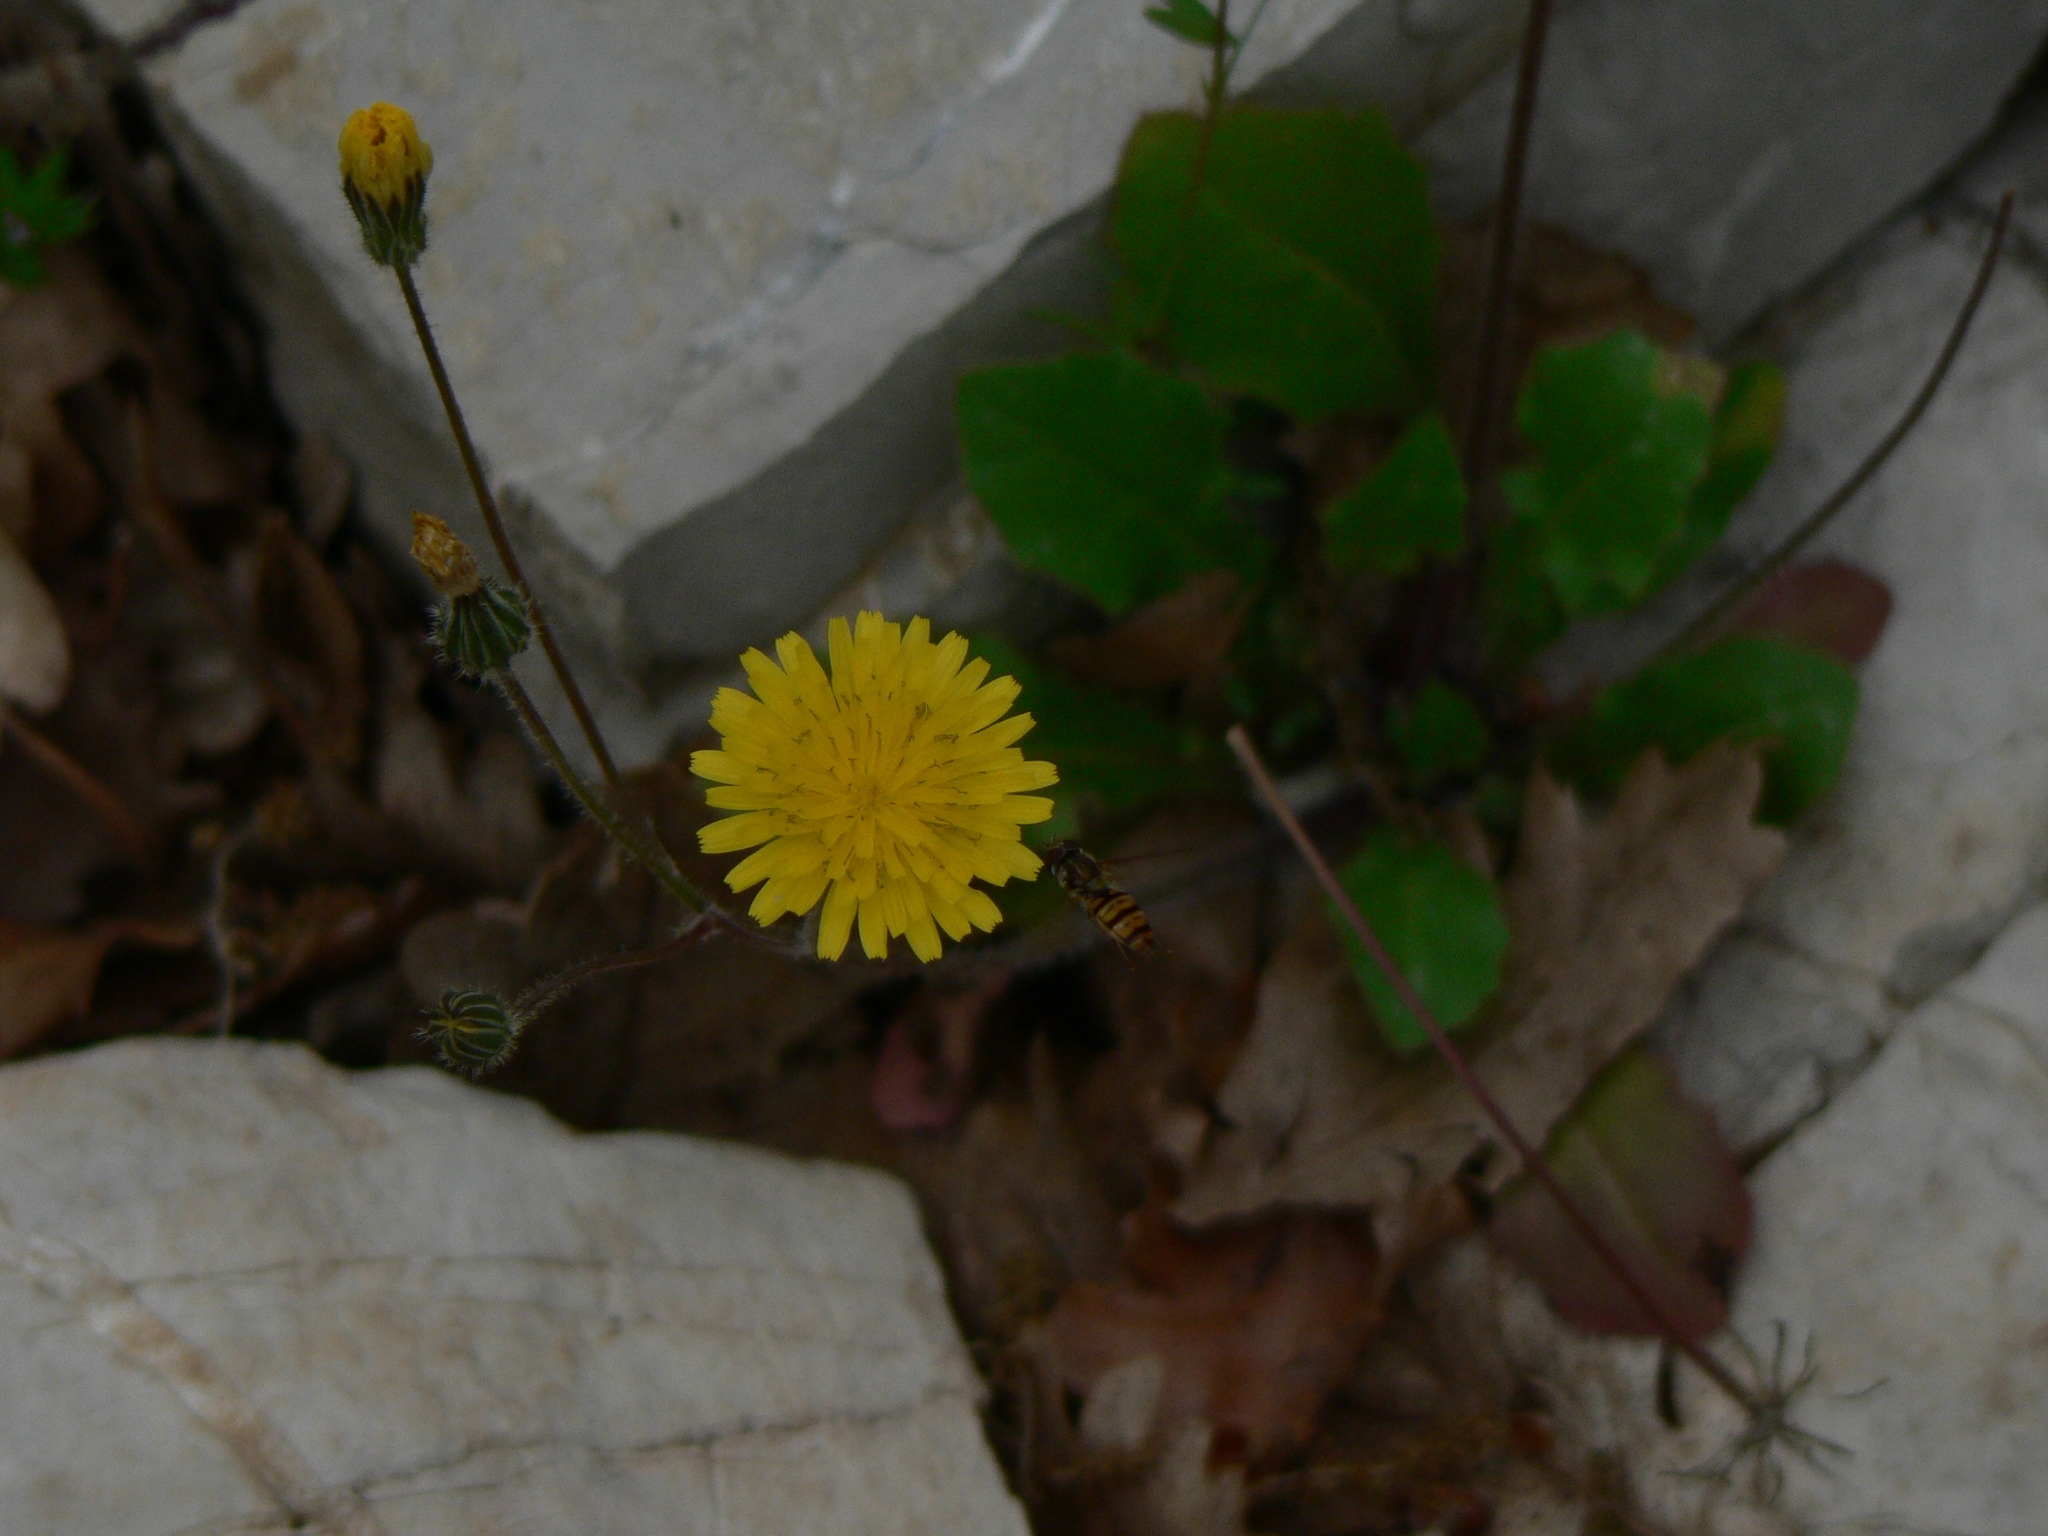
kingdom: Animalia
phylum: Arthropoda
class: Insecta
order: Diptera
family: Syrphidae
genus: Episyrphus
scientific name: Episyrphus balteatus
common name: Marmalade hoverfly
